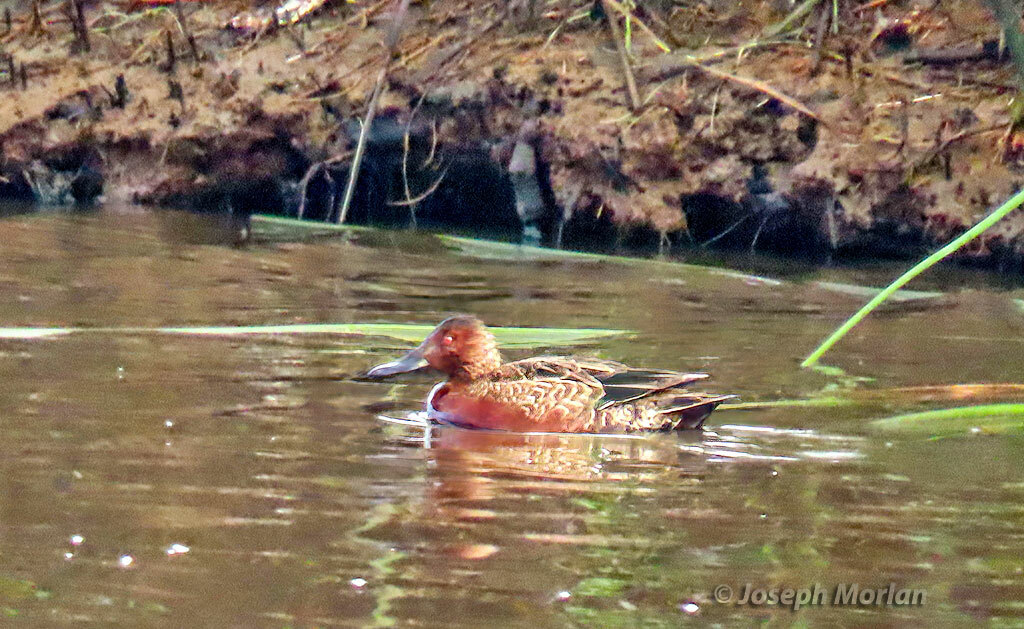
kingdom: Animalia
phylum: Chordata
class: Aves
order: Anseriformes
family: Anatidae
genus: Spatula
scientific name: Spatula cyanoptera
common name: Cinnamon teal
